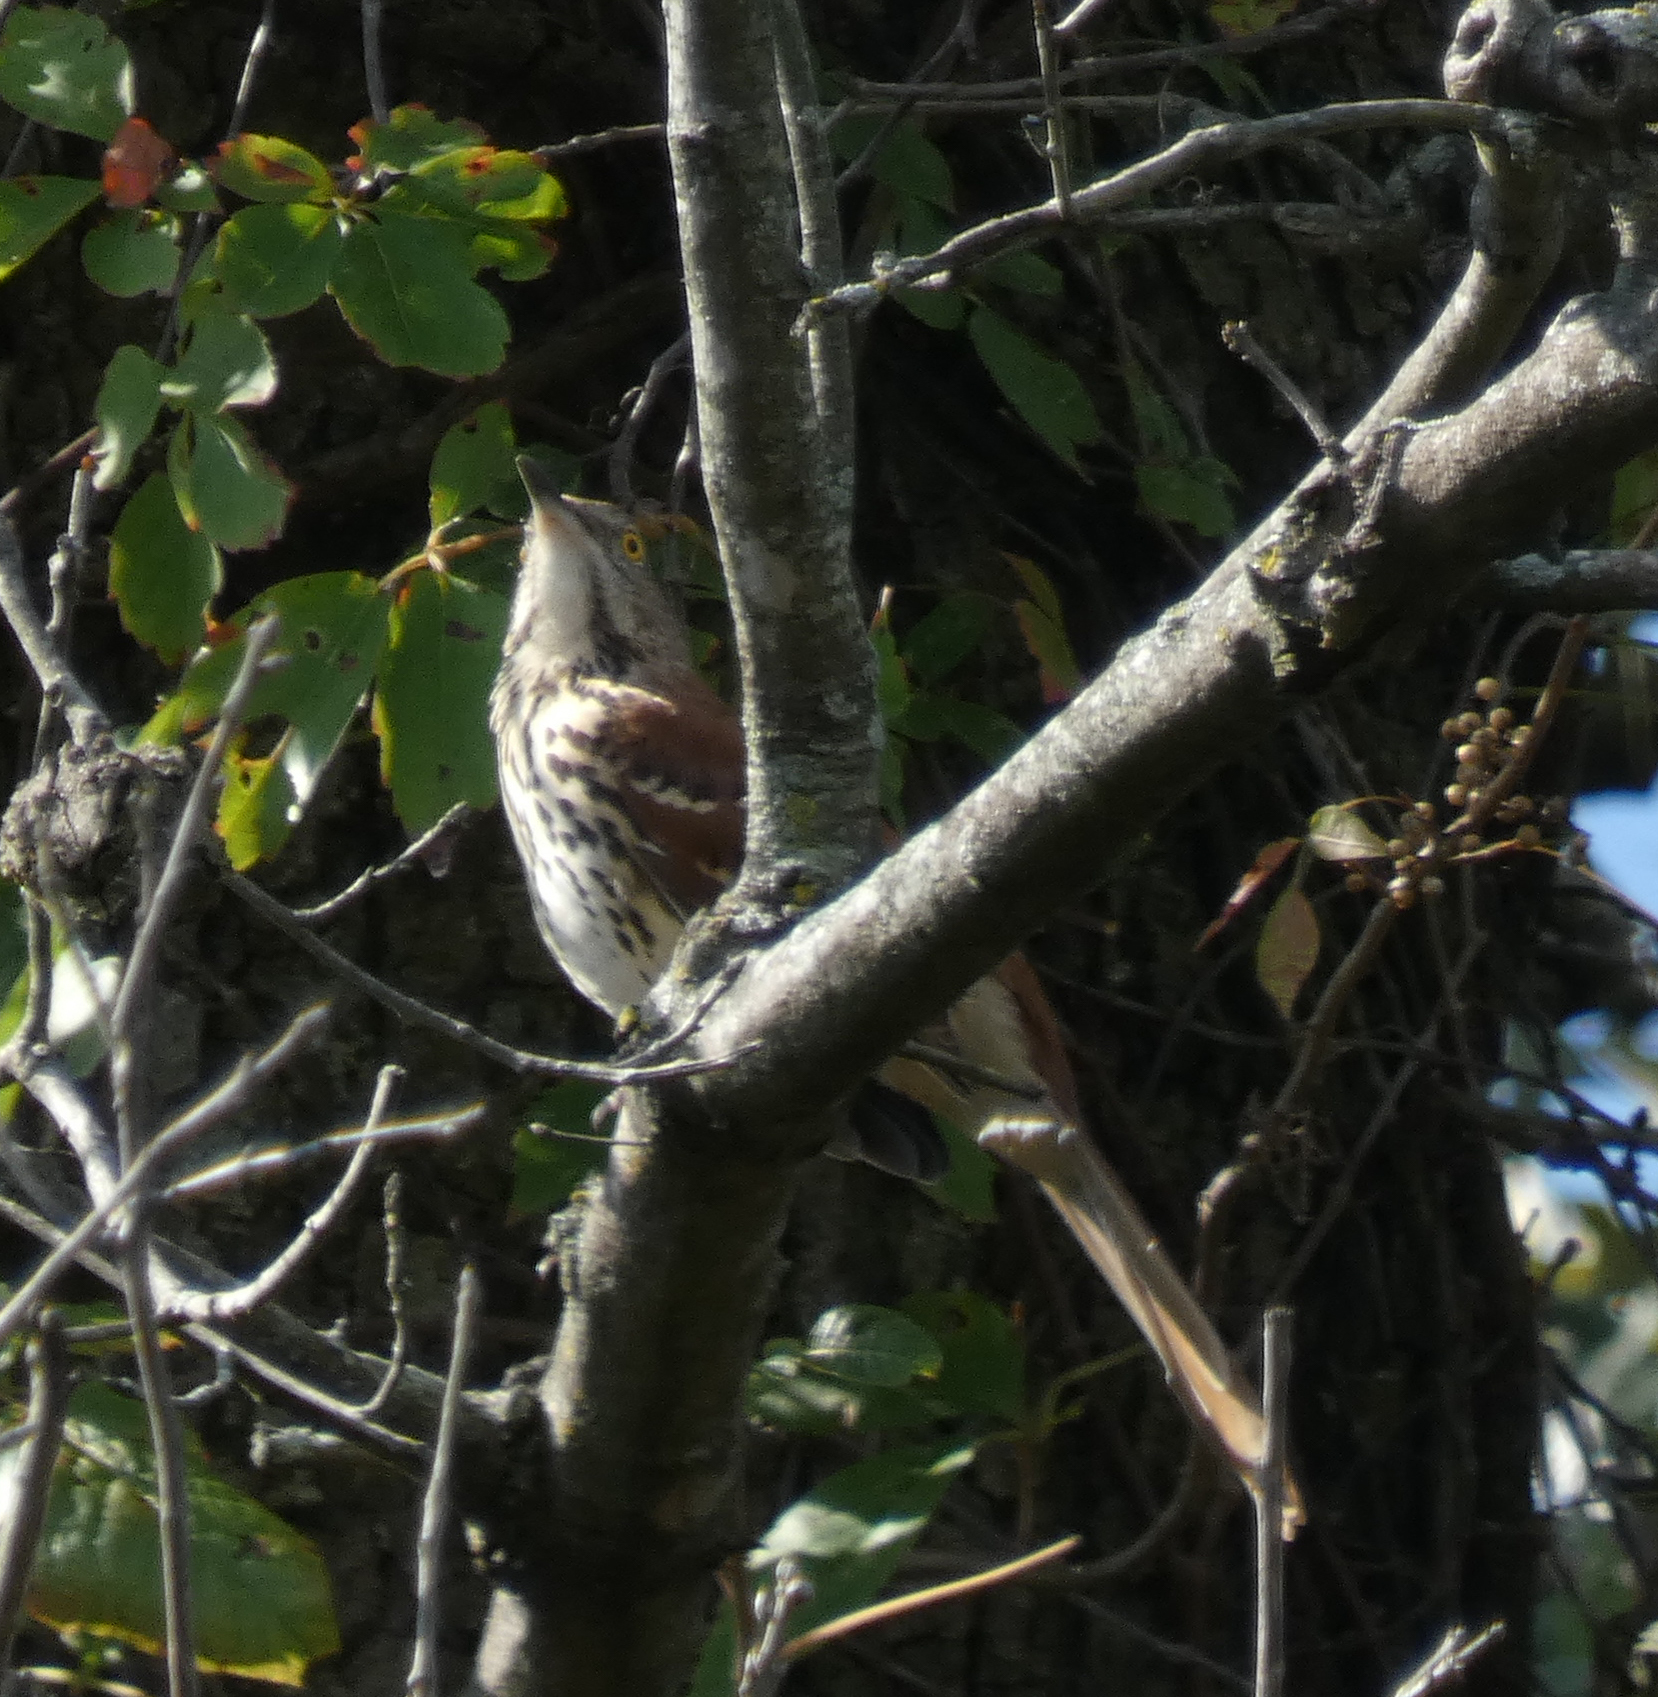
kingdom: Animalia
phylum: Chordata
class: Aves
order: Passeriformes
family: Mimidae
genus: Toxostoma
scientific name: Toxostoma rufum
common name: Brown thrasher
